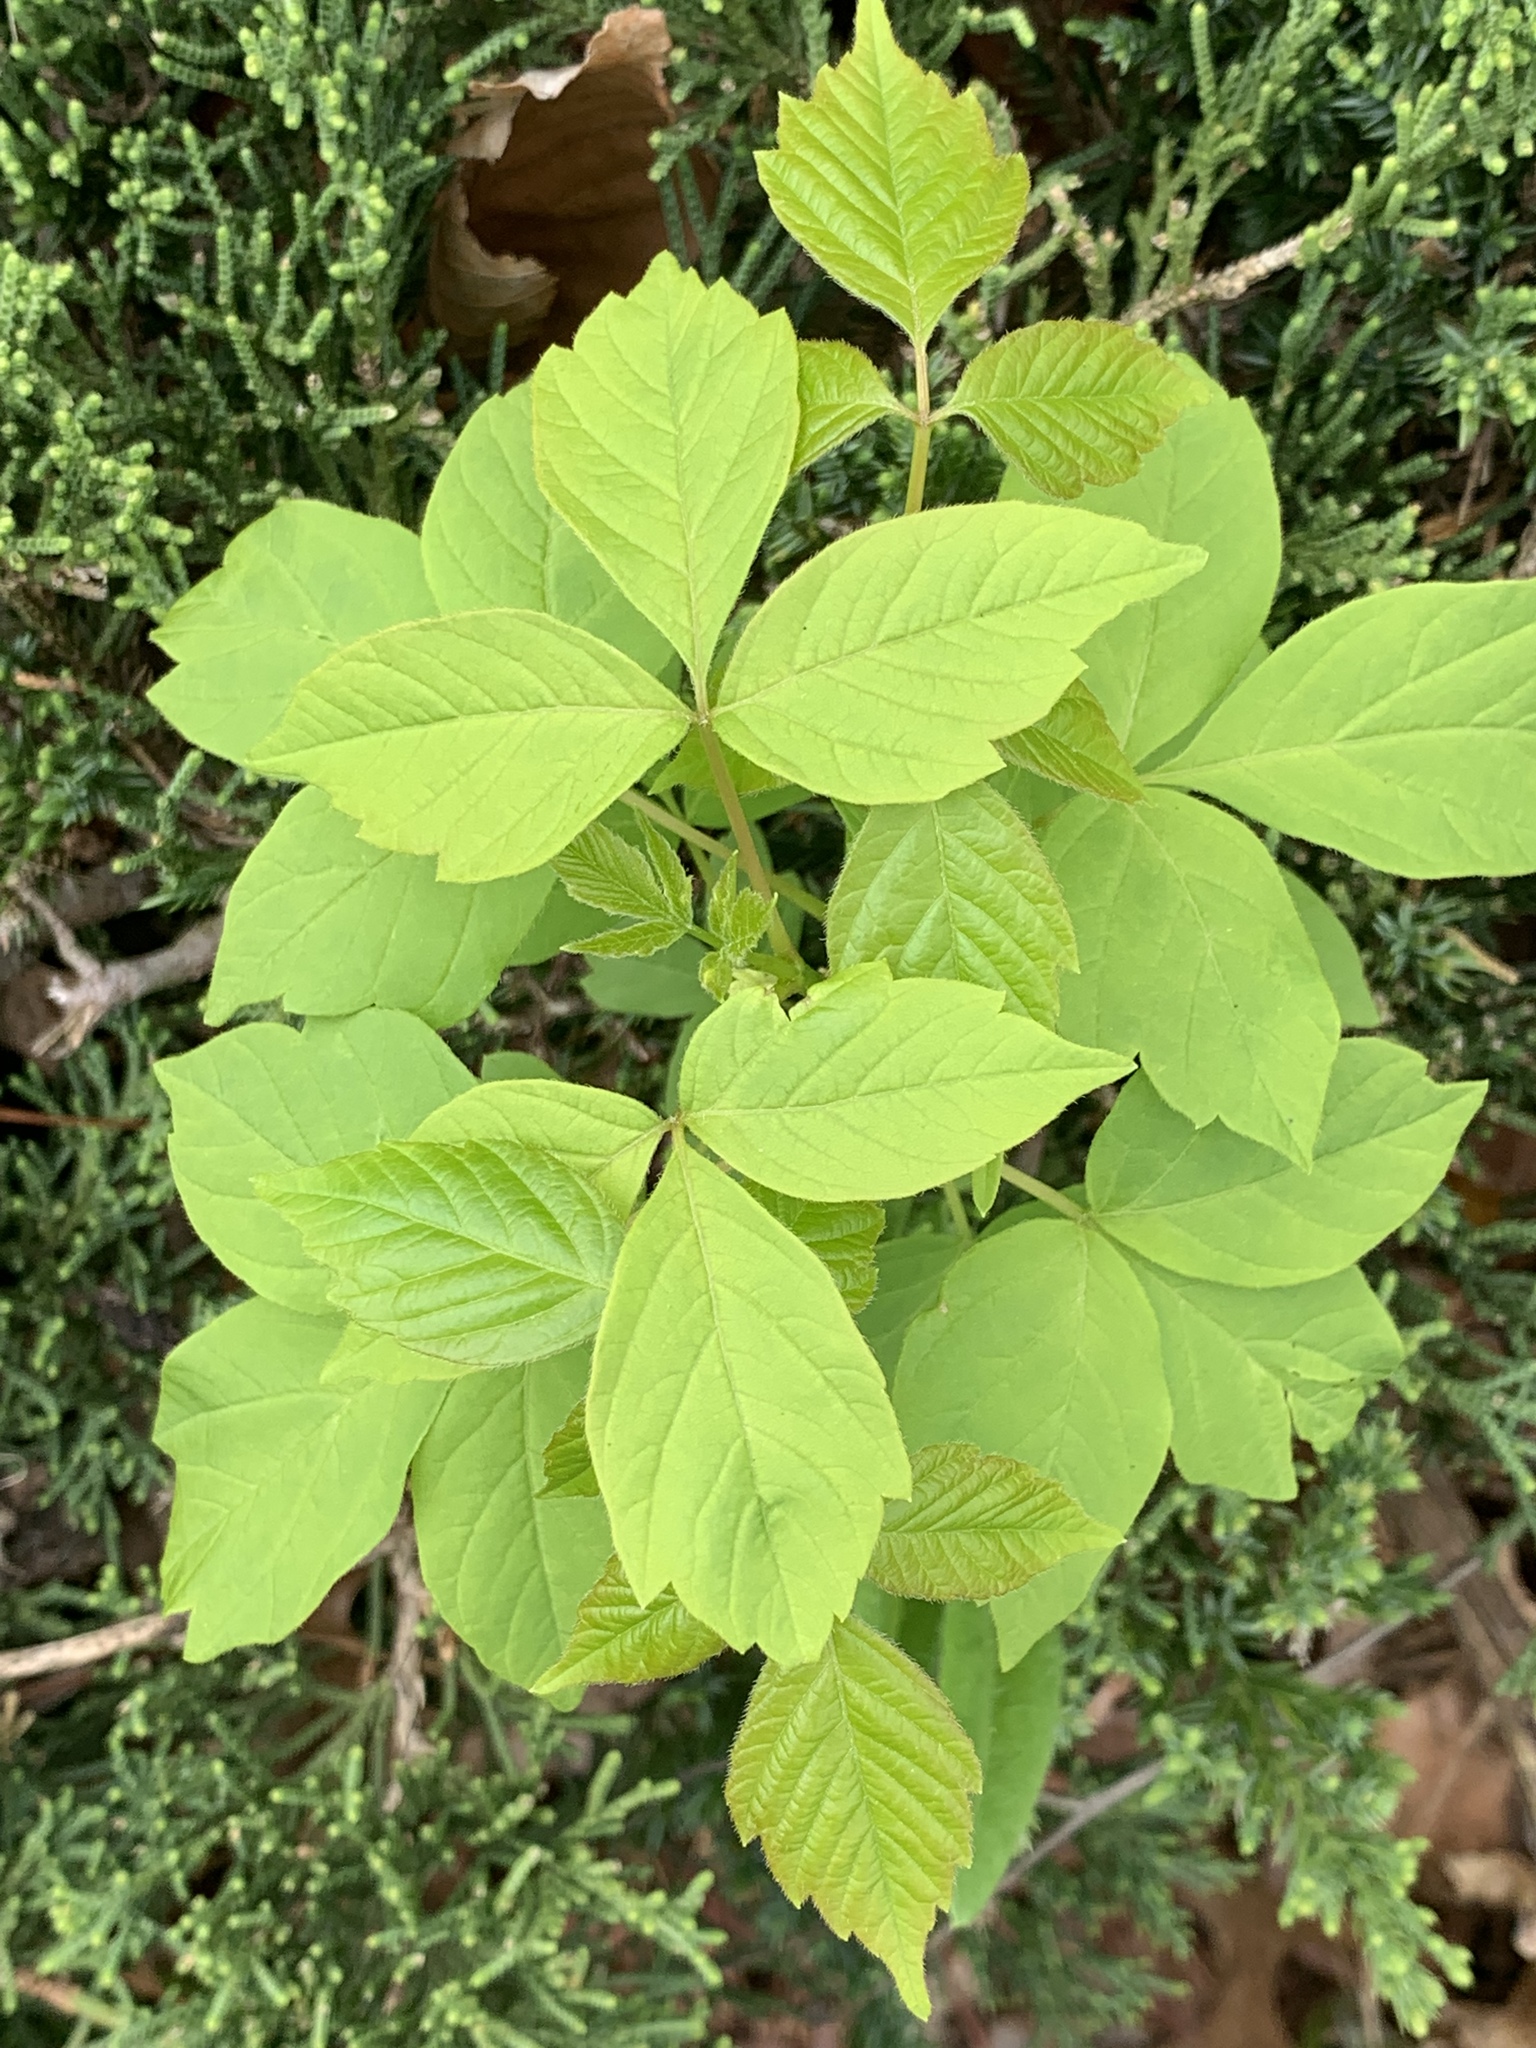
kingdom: Plantae
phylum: Tracheophyta
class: Magnoliopsida
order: Sapindales
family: Sapindaceae
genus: Acer
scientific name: Acer negundo
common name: Ashleaf maple
